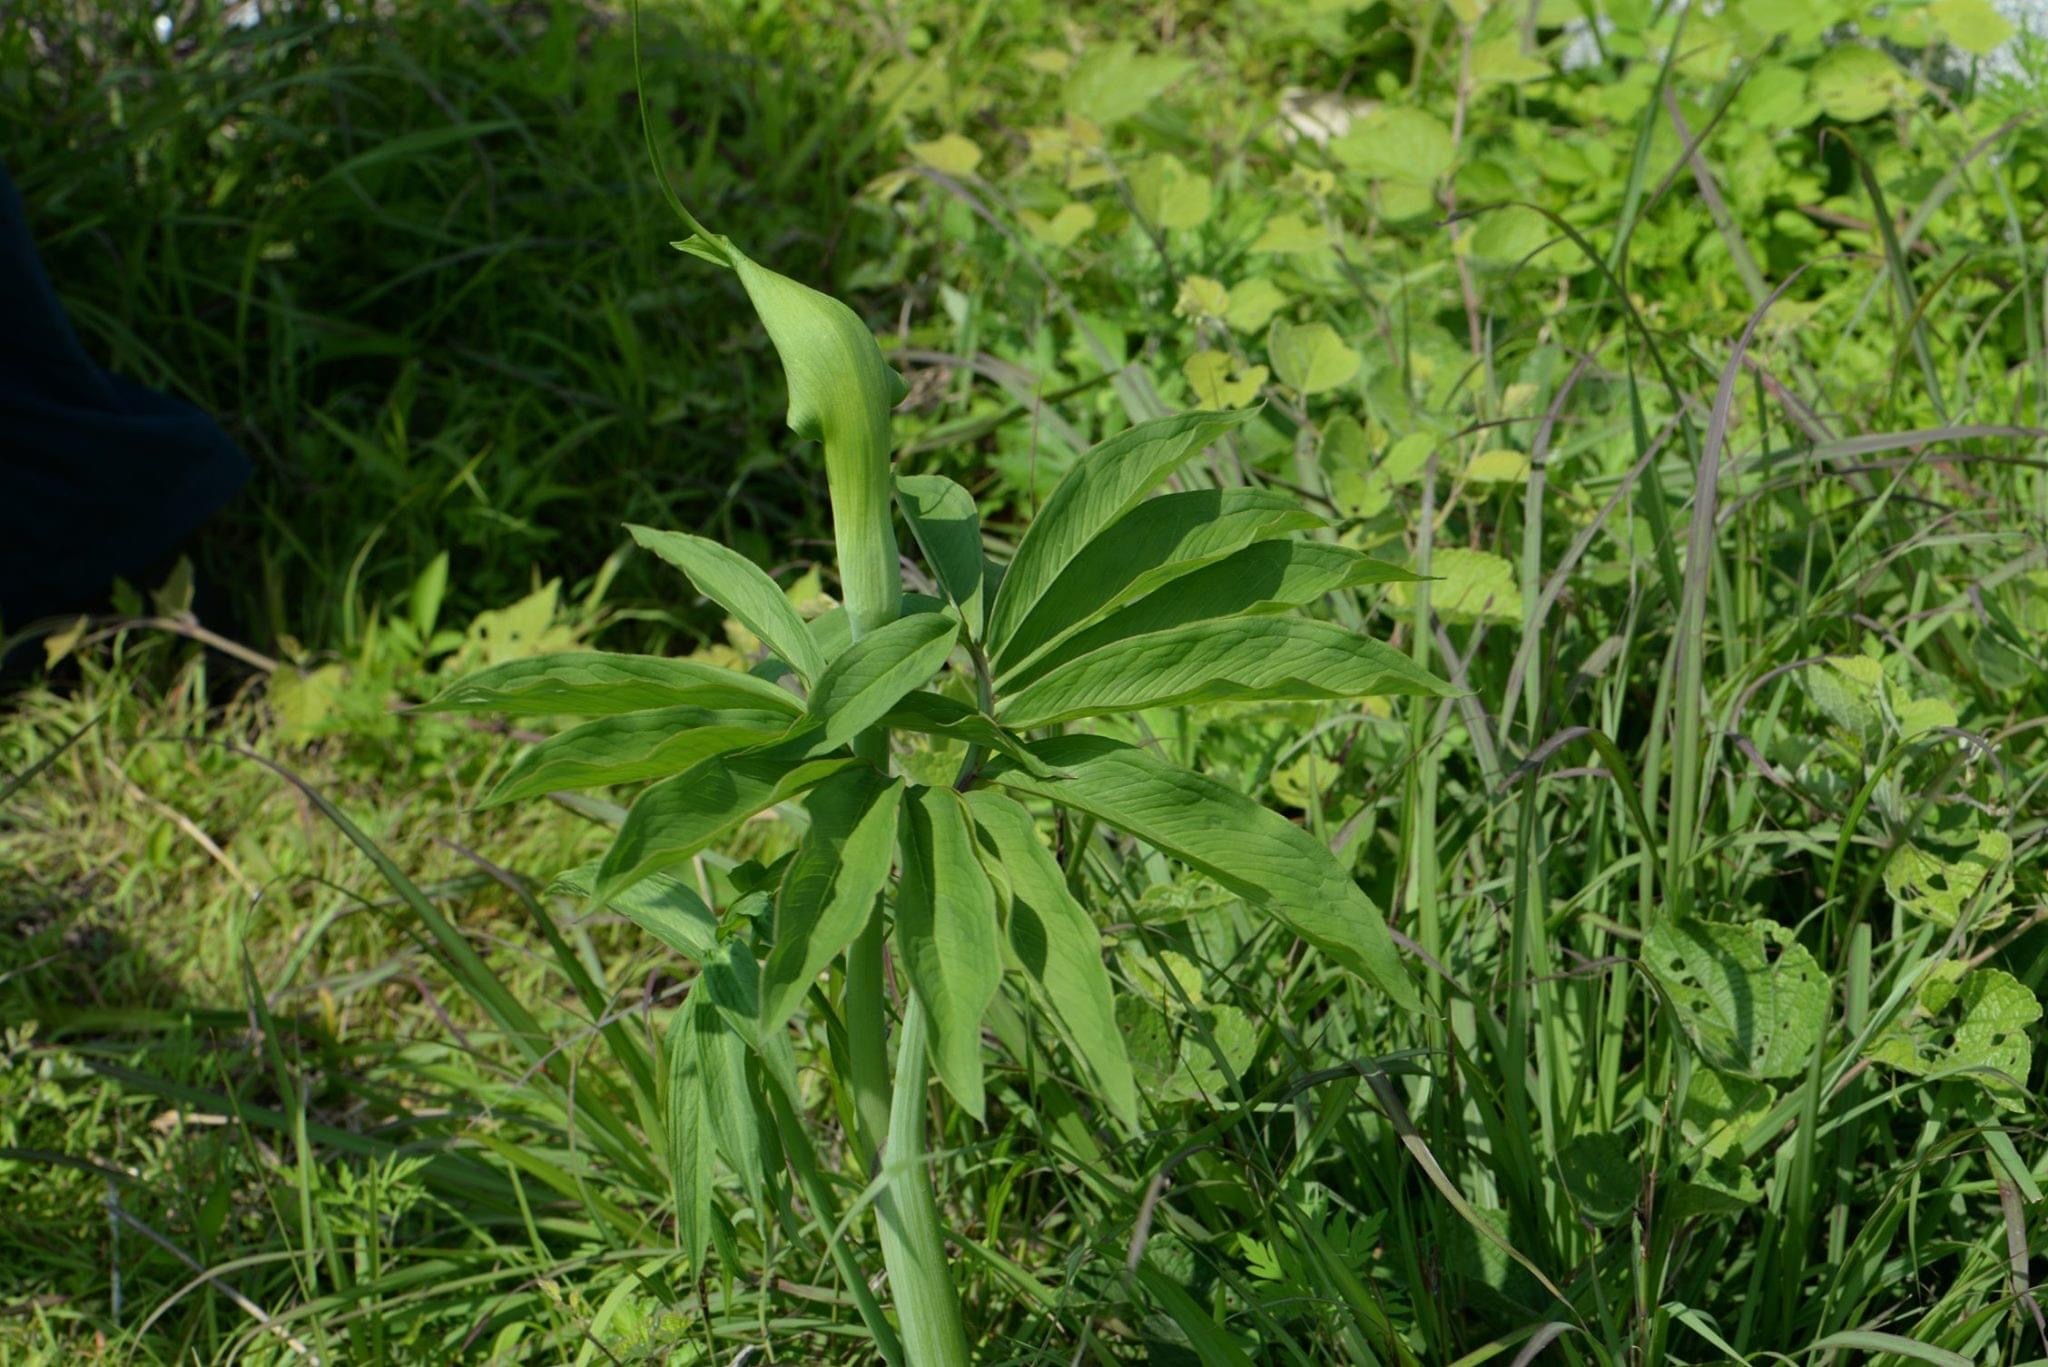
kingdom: Plantae
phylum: Tracheophyta
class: Liliopsida
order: Alismatales
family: Araceae
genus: Arisaema
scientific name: Arisaema heterophyllum
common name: Dancing crane cobra lily
